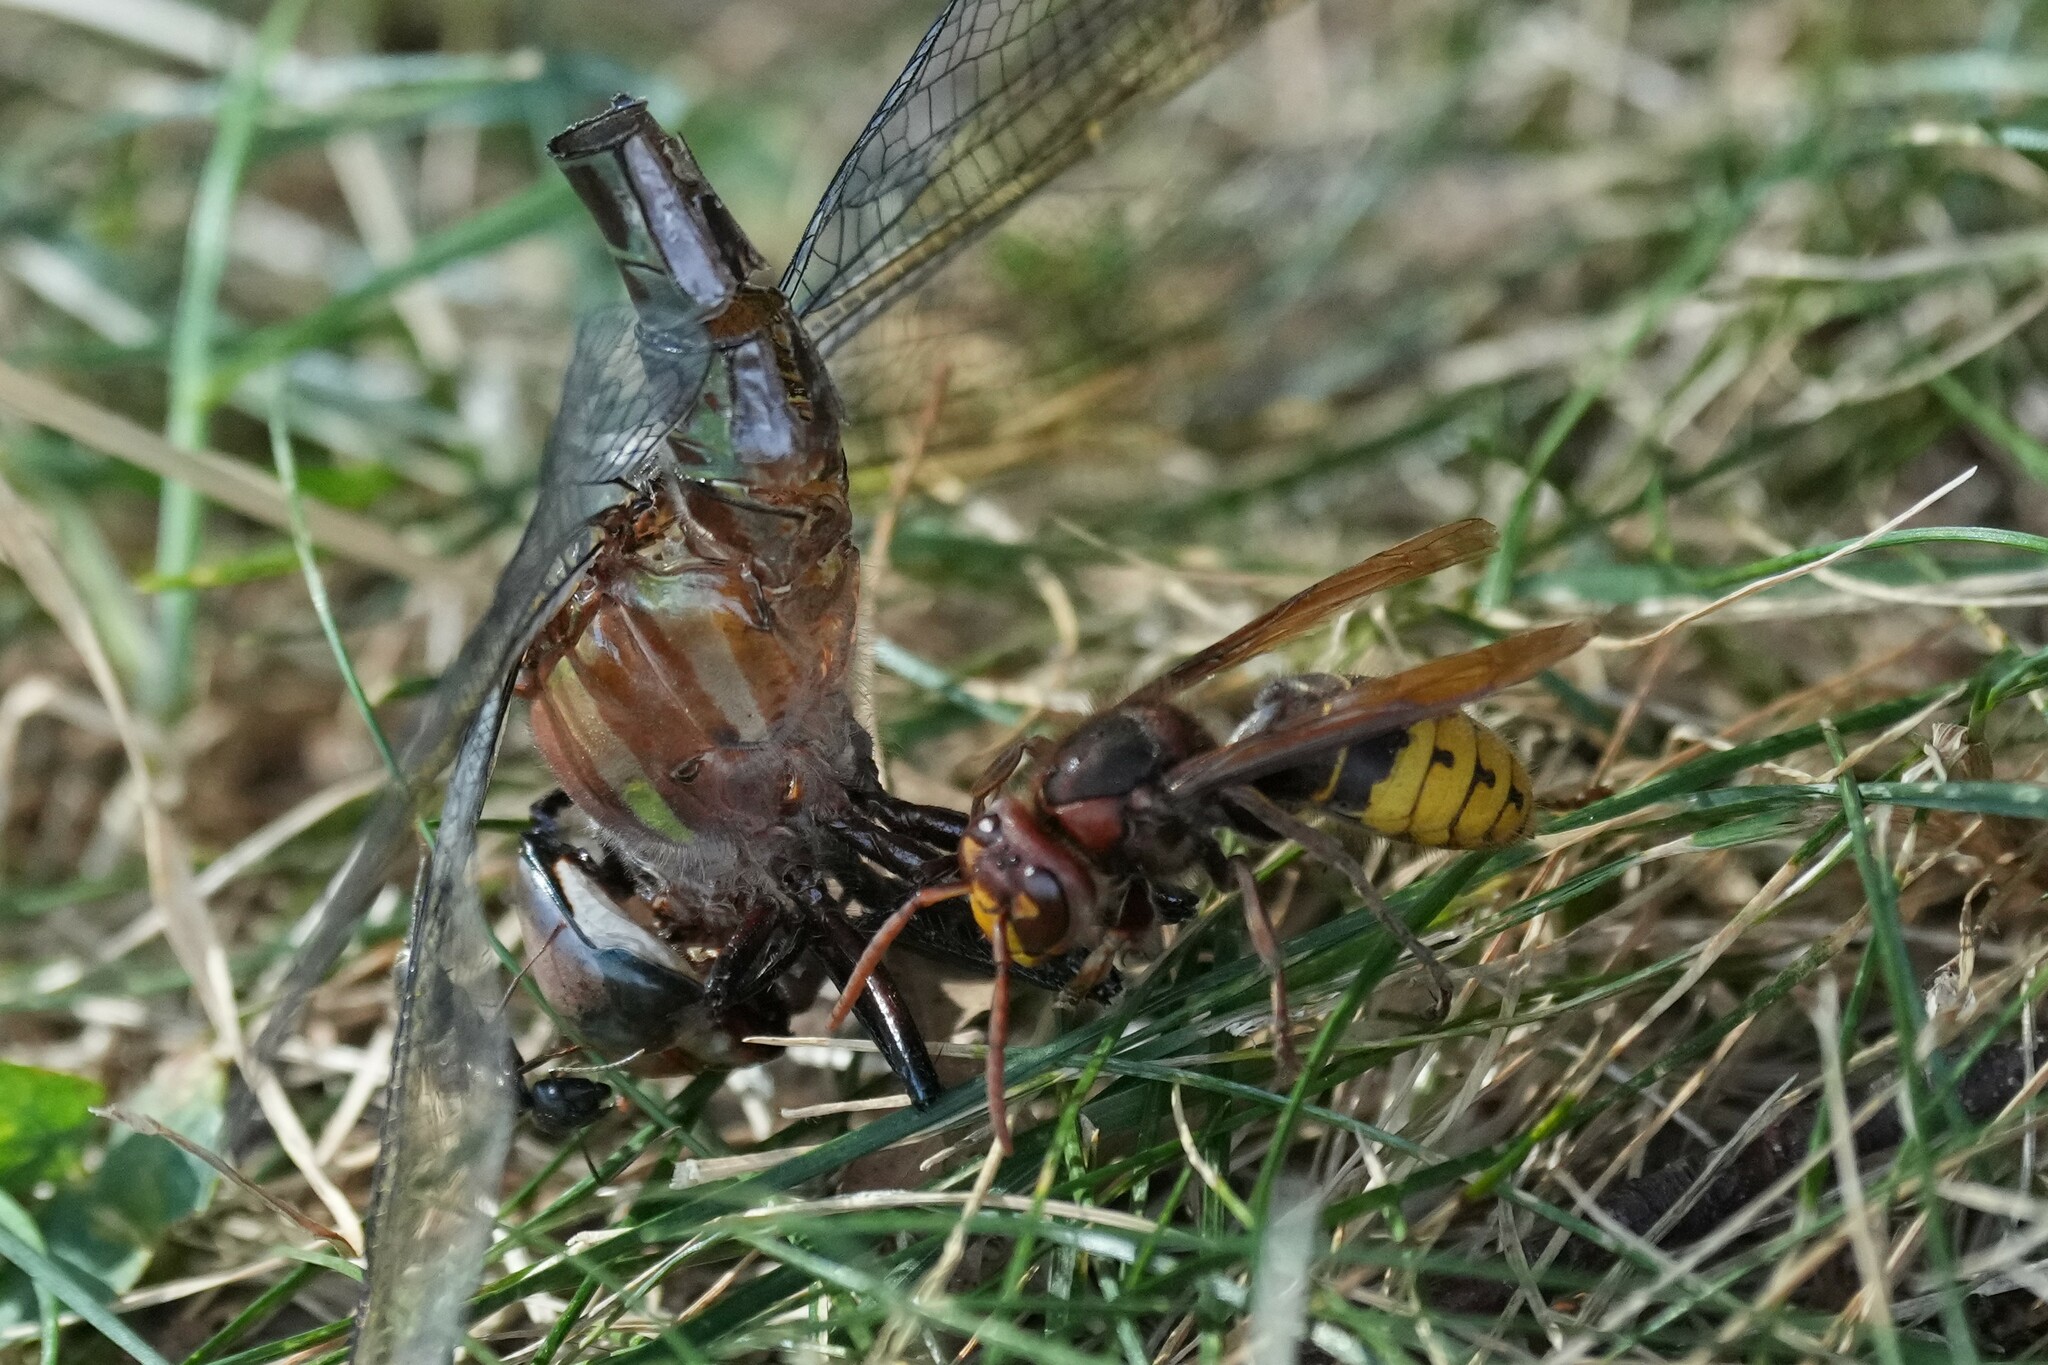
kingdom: Animalia
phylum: Arthropoda
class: Insecta
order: Hymenoptera
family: Vespidae
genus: Vespa
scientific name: Vespa crabro
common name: Hornet
